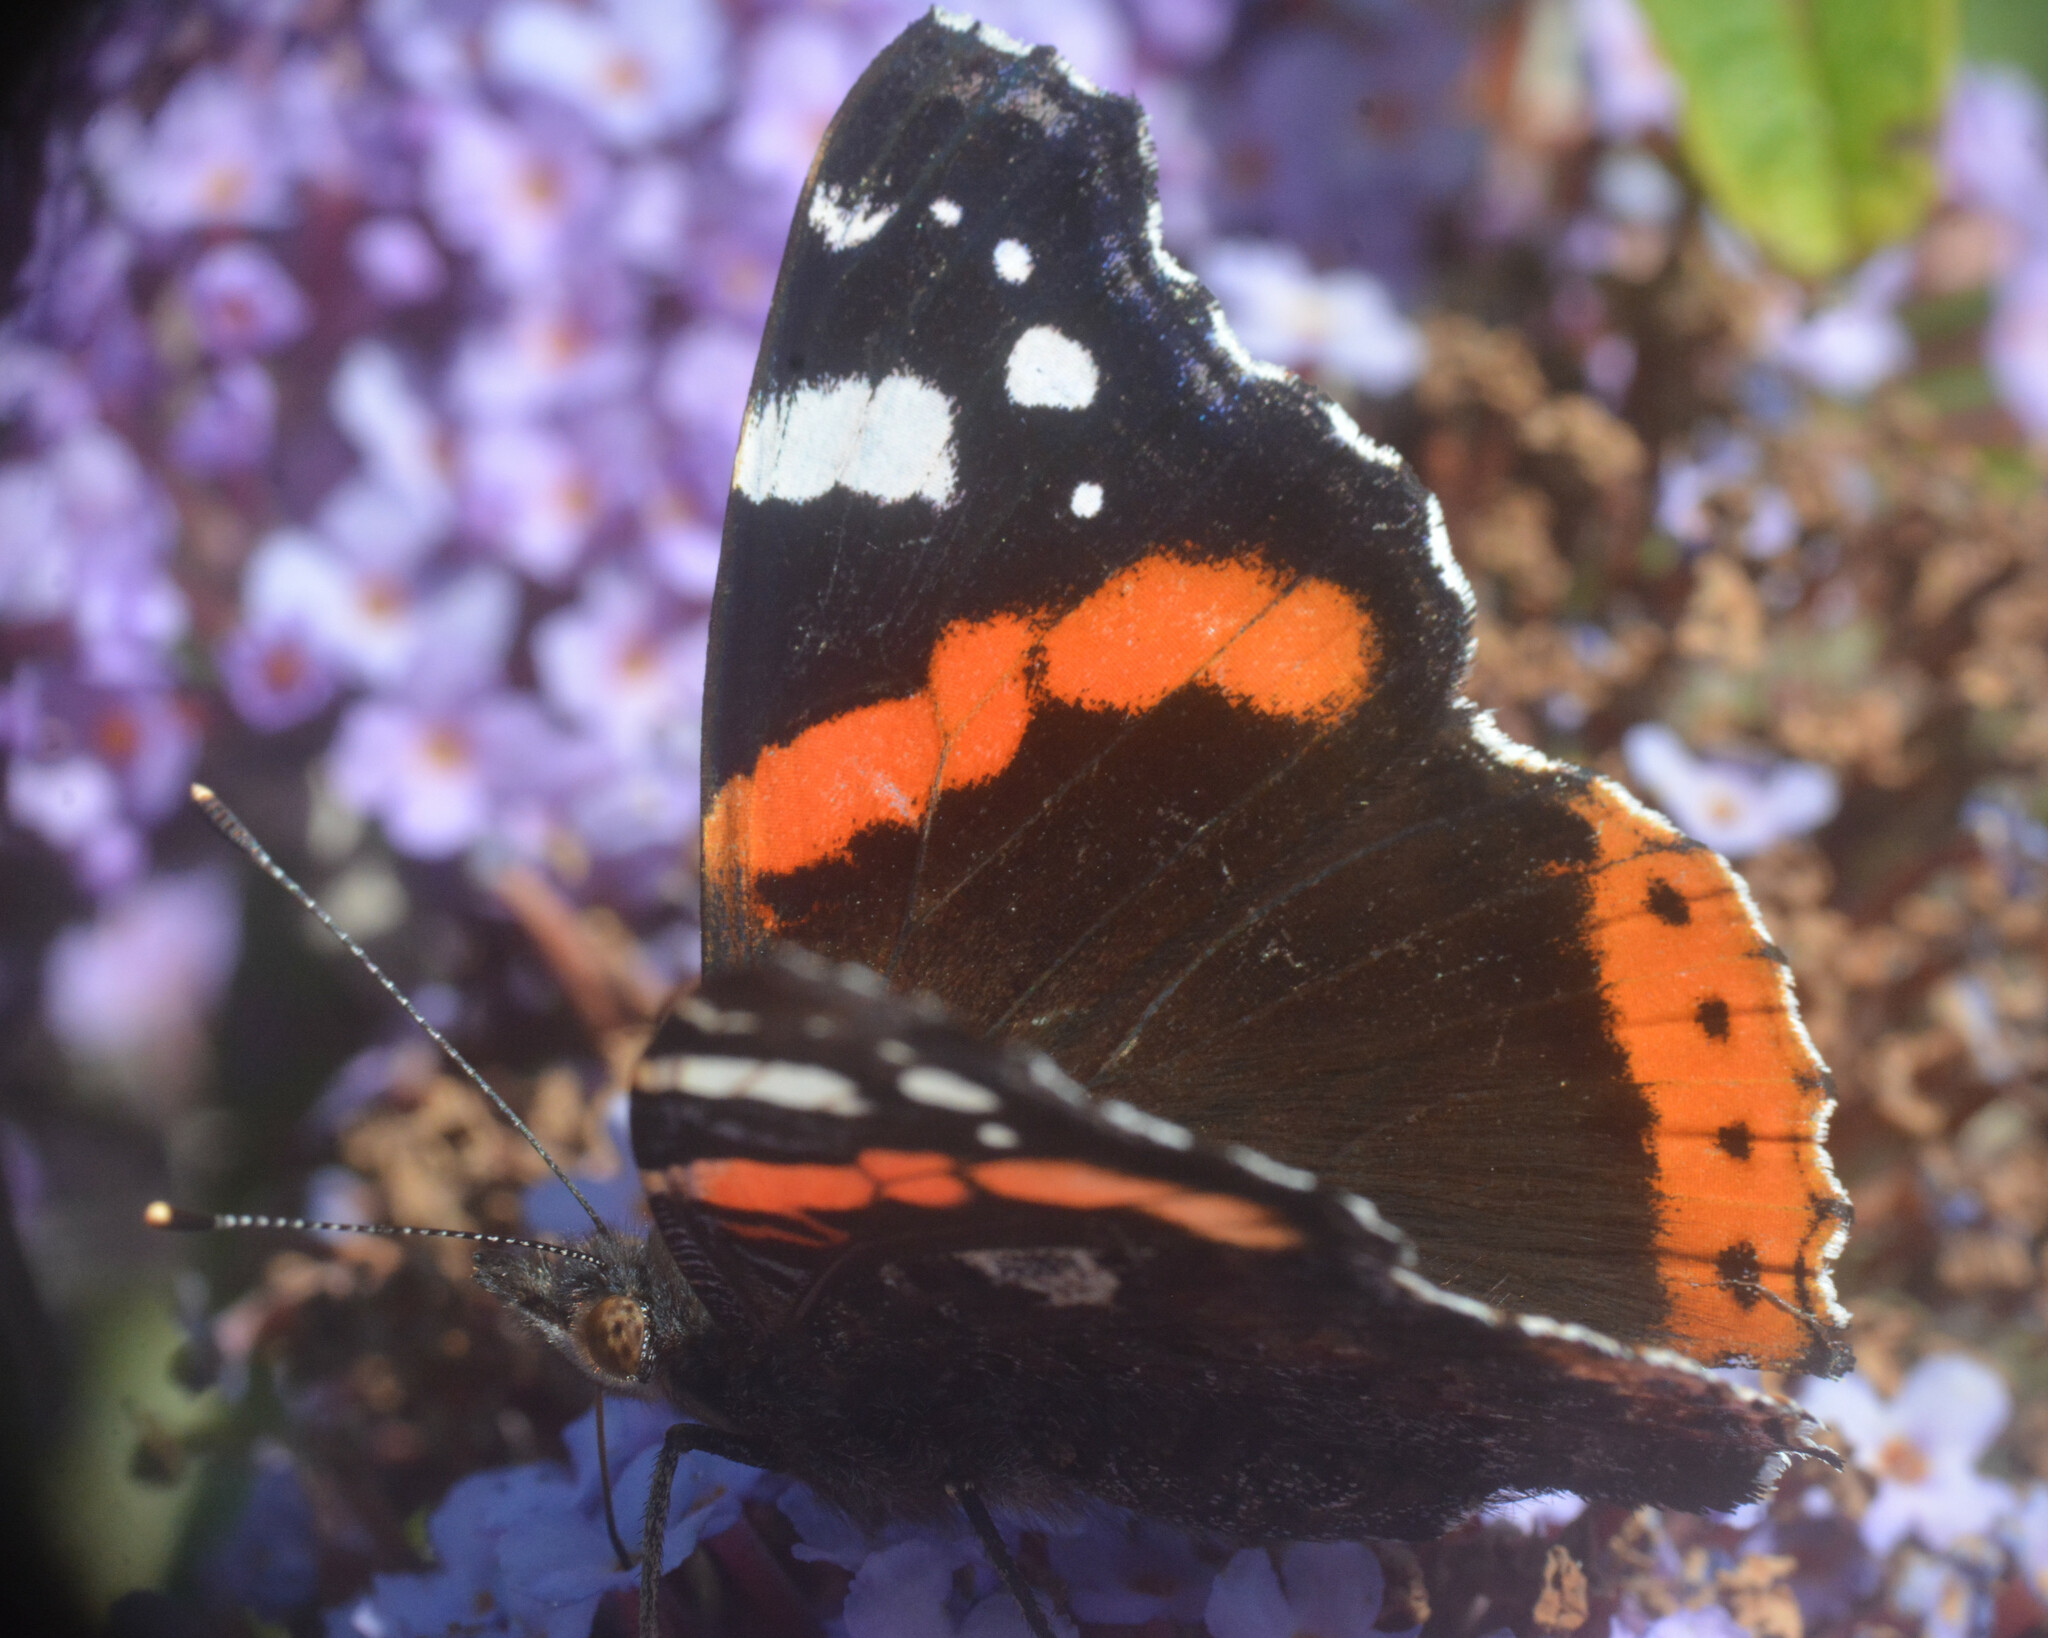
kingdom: Animalia
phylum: Arthropoda
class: Insecta
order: Lepidoptera
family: Nymphalidae
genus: Vanessa
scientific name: Vanessa atalanta
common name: Red admiral
